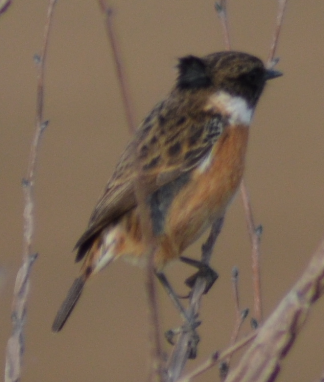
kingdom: Animalia
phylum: Chordata
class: Aves
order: Passeriformes
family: Muscicapidae
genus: Saxicola
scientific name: Saxicola rubicola
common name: European stonechat
